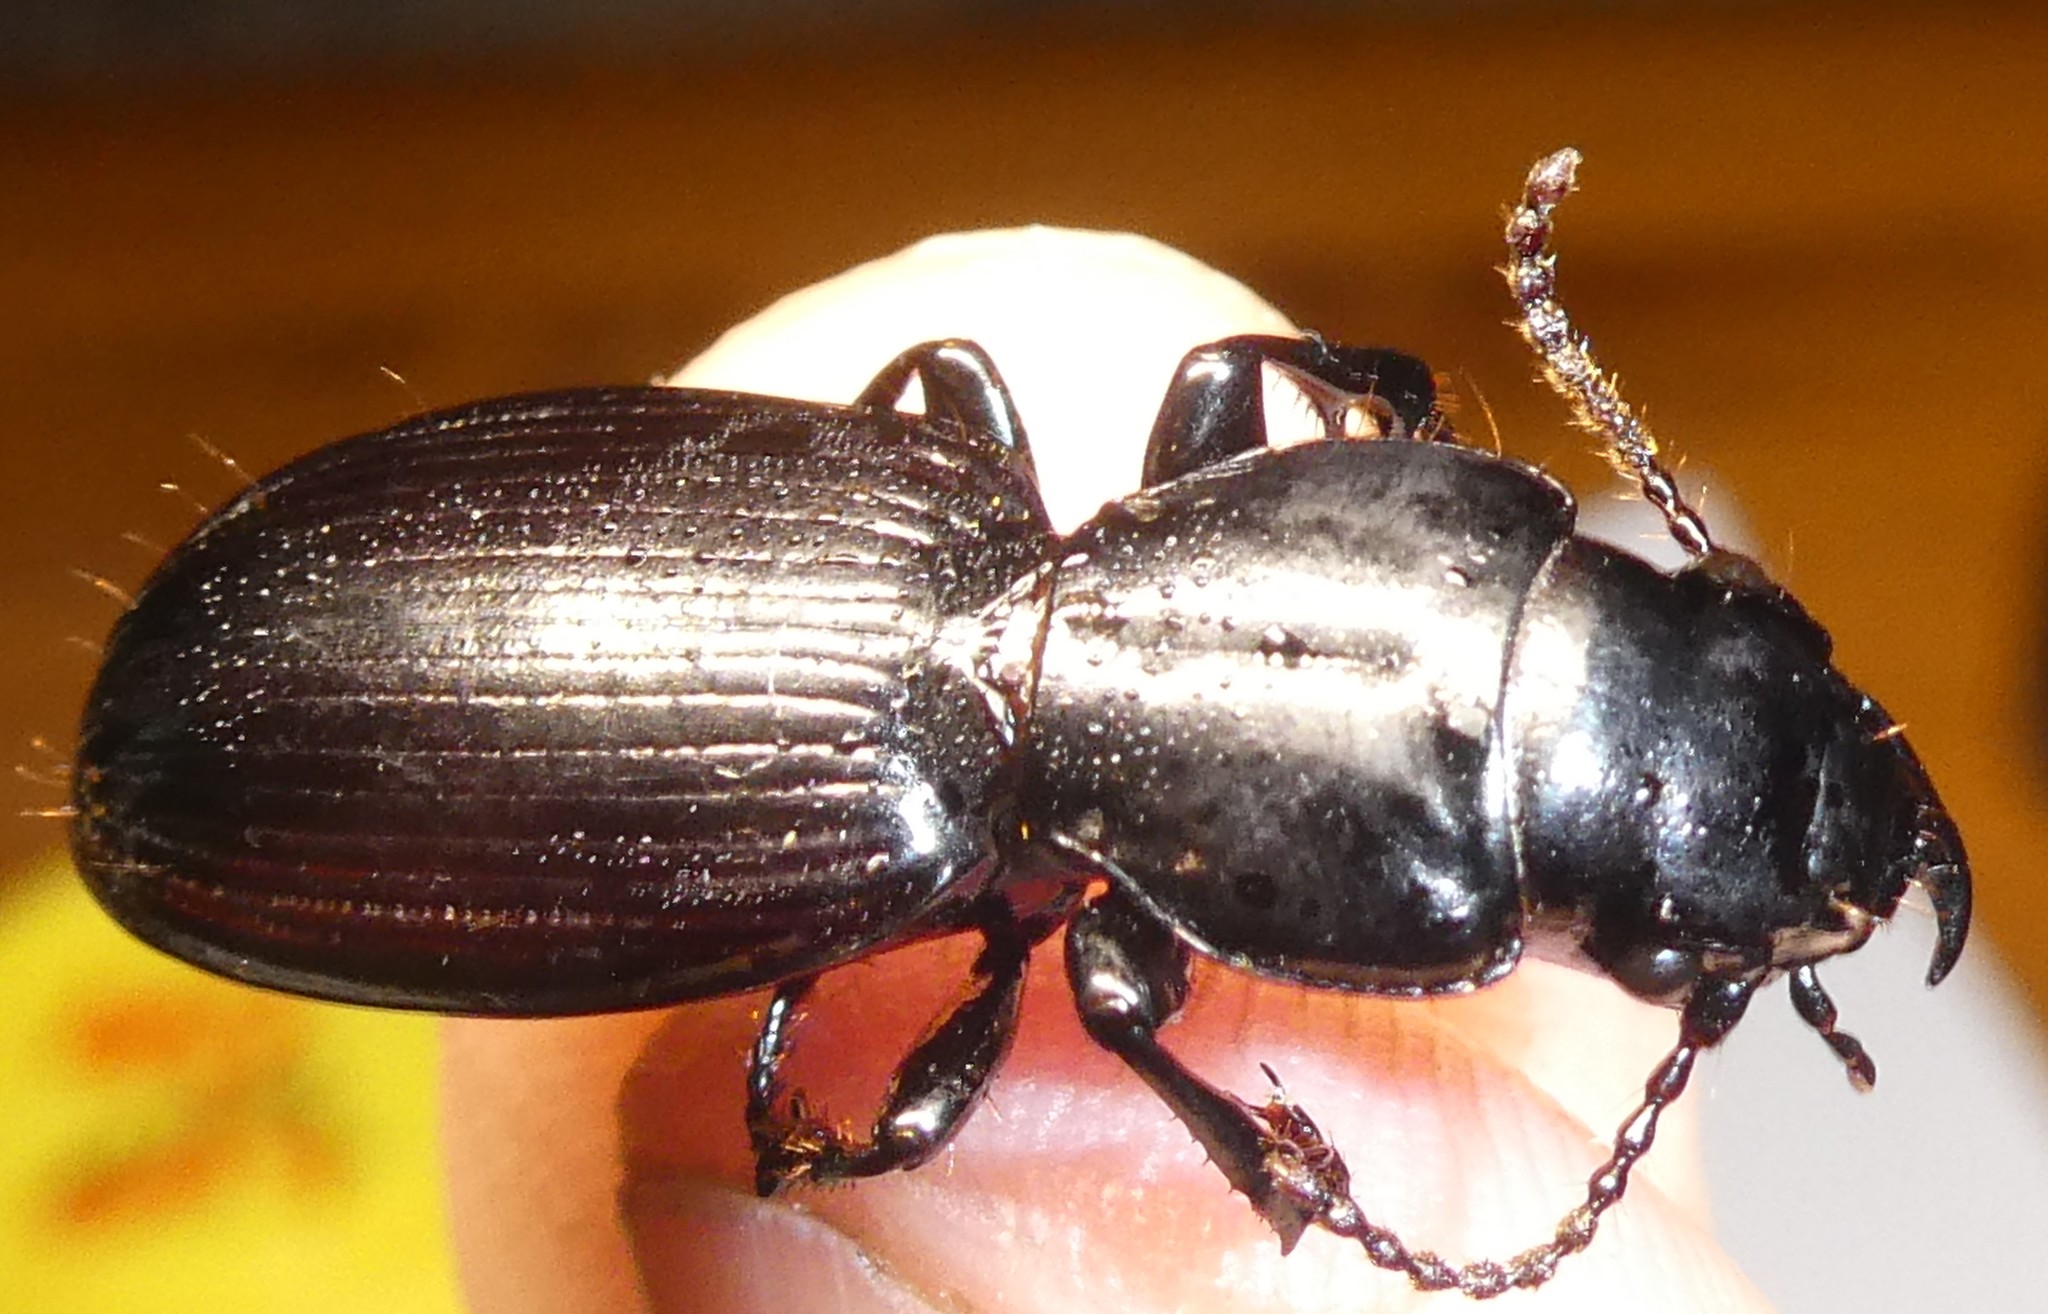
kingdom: Animalia
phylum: Arthropoda
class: Insecta
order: Coleoptera
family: Carabidae
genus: Mecodema
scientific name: Mecodema fulgidum
